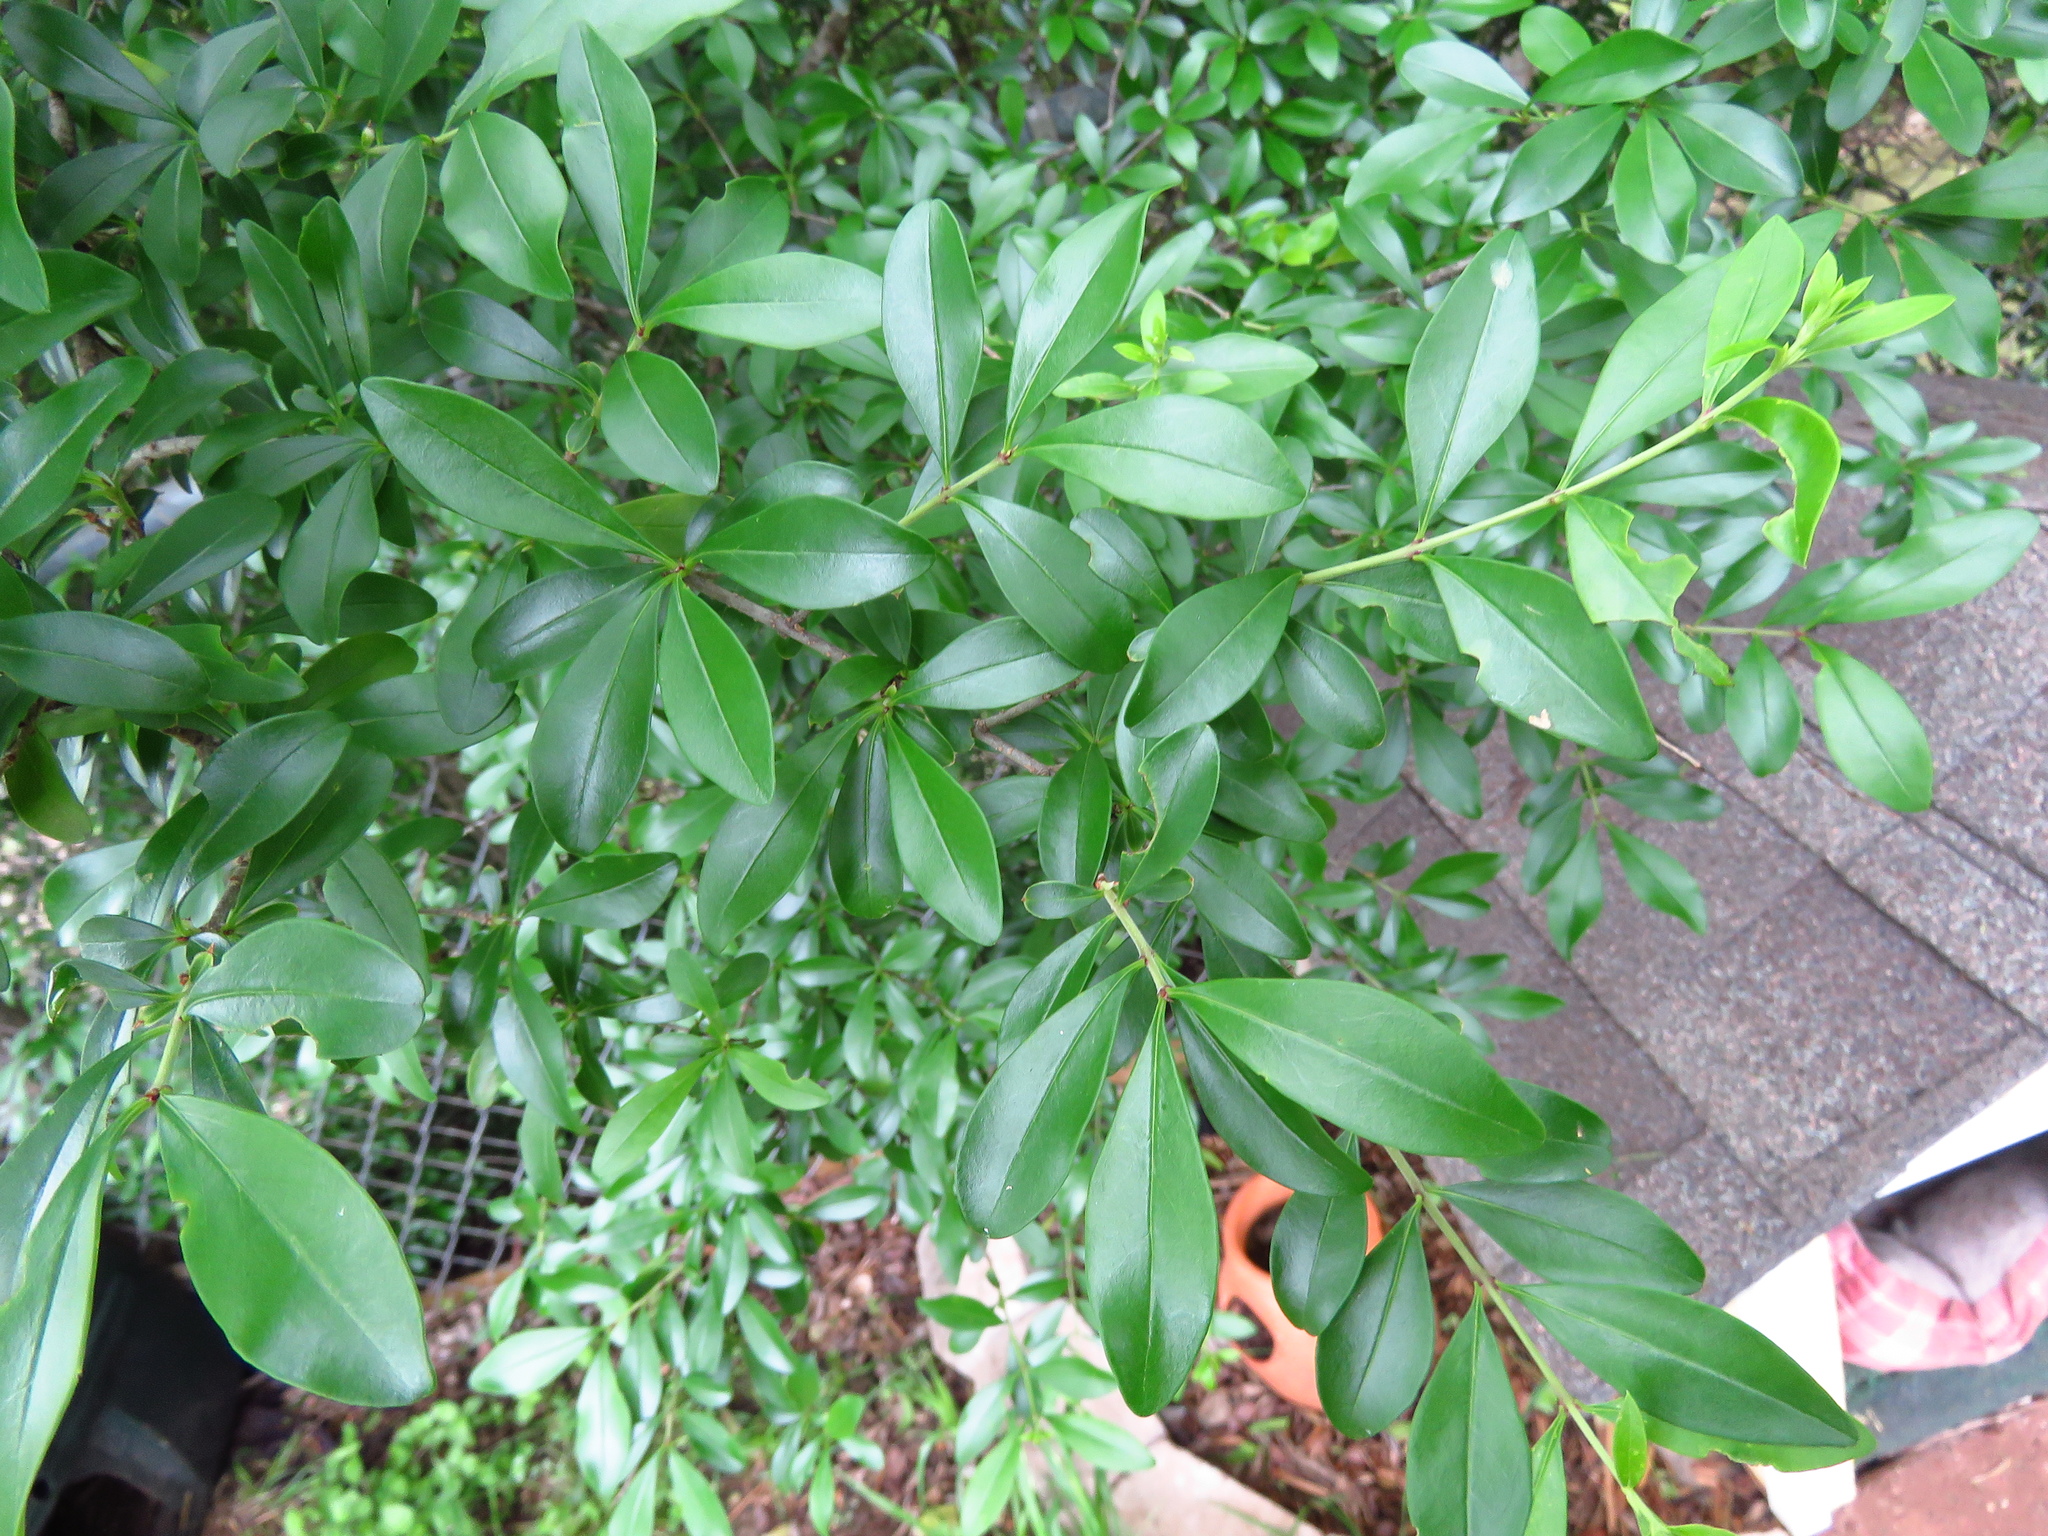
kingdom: Plantae
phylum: Tracheophyta
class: Magnoliopsida
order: Lamiales
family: Oleaceae
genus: Ligustrum
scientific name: Ligustrum quihoui
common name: Waxyleaf privet
